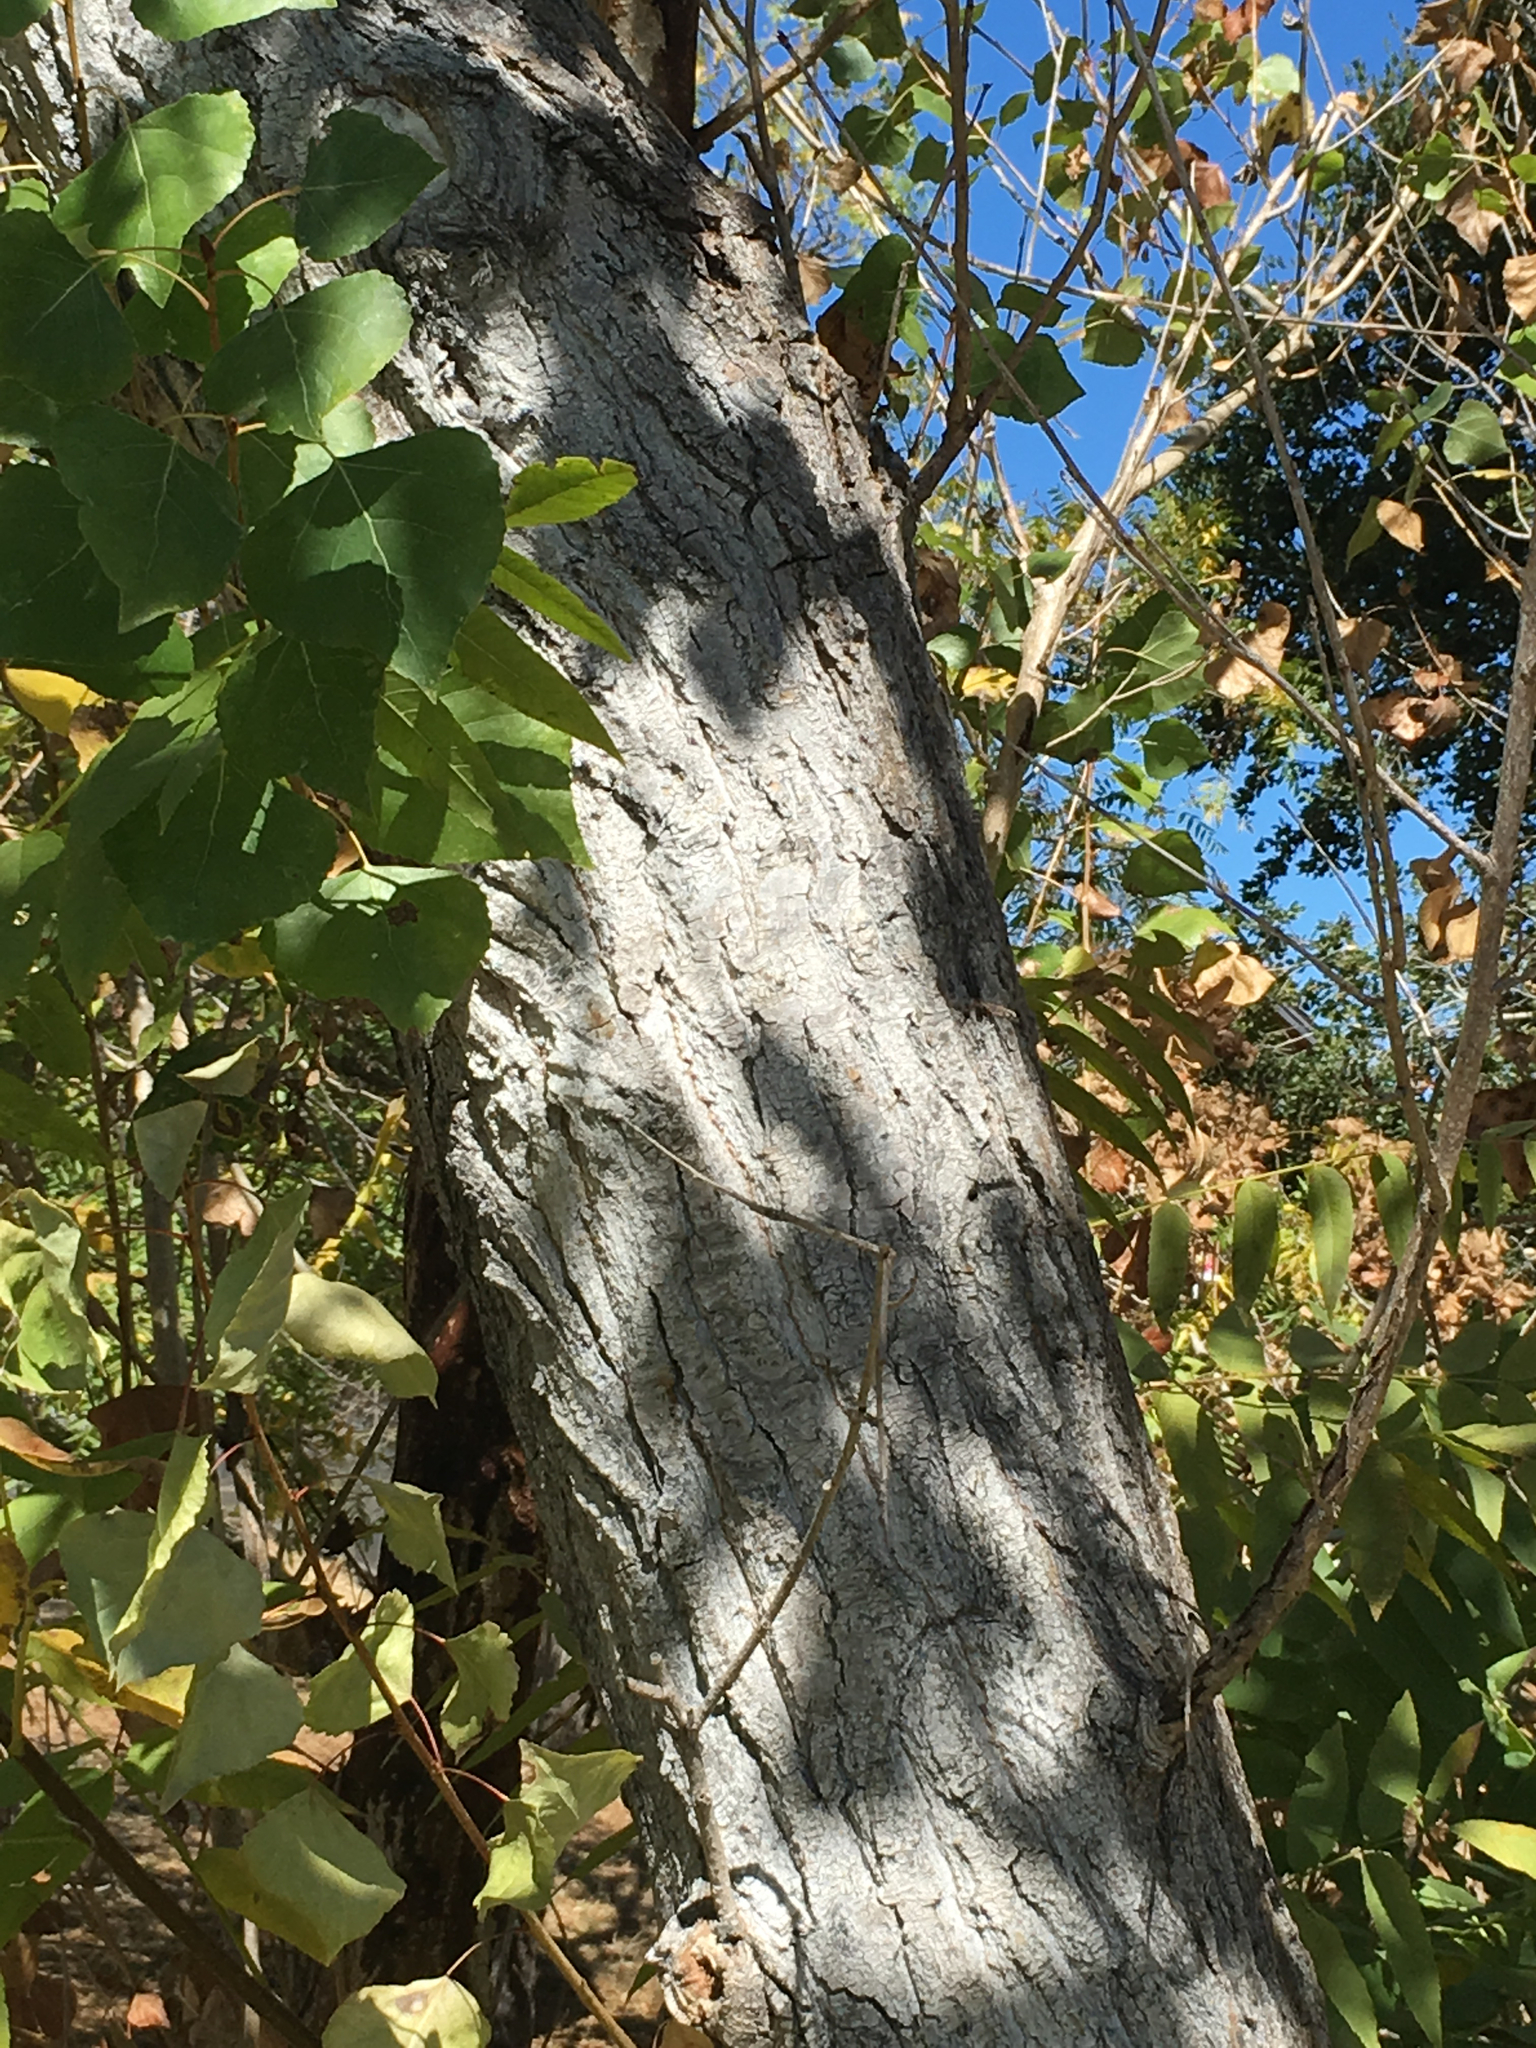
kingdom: Plantae
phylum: Tracheophyta
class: Magnoliopsida
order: Malpighiales
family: Salicaceae
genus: Populus
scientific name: Populus fremontii
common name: Fremont's cottonwood
